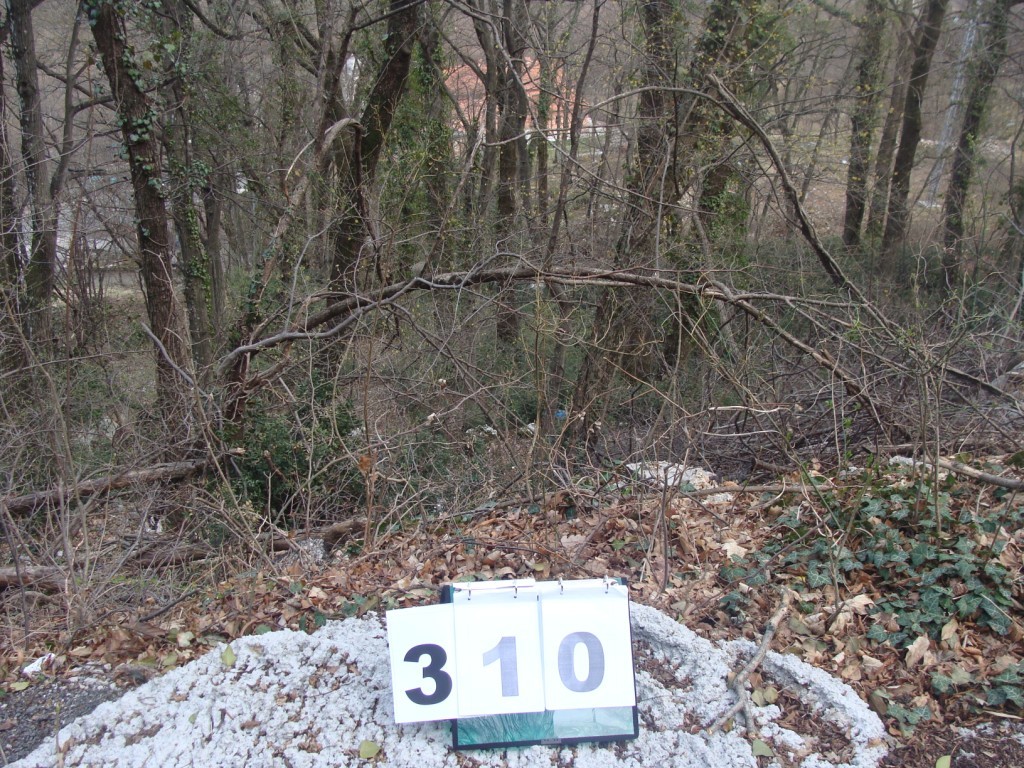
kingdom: Plantae
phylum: Tracheophyta
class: Magnoliopsida
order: Cornales
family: Cornaceae
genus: Cornus
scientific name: Cornus mas
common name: Cornelian-cherry
